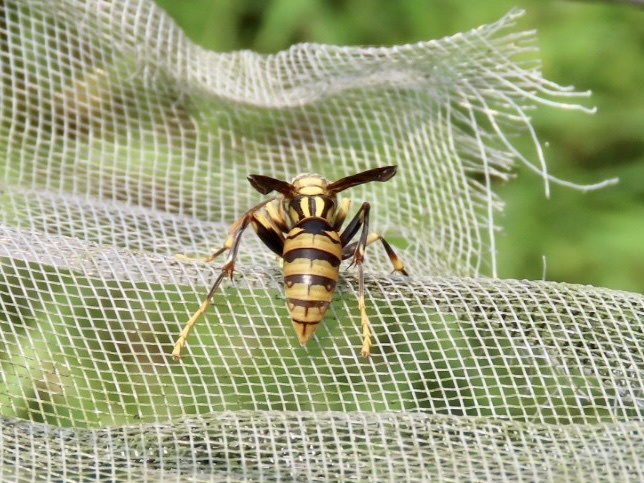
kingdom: Animalia
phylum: Arthropoda
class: Insecta
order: Hymenoptera
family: Eumenidae
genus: Polistes
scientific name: Polistes rothneyi
